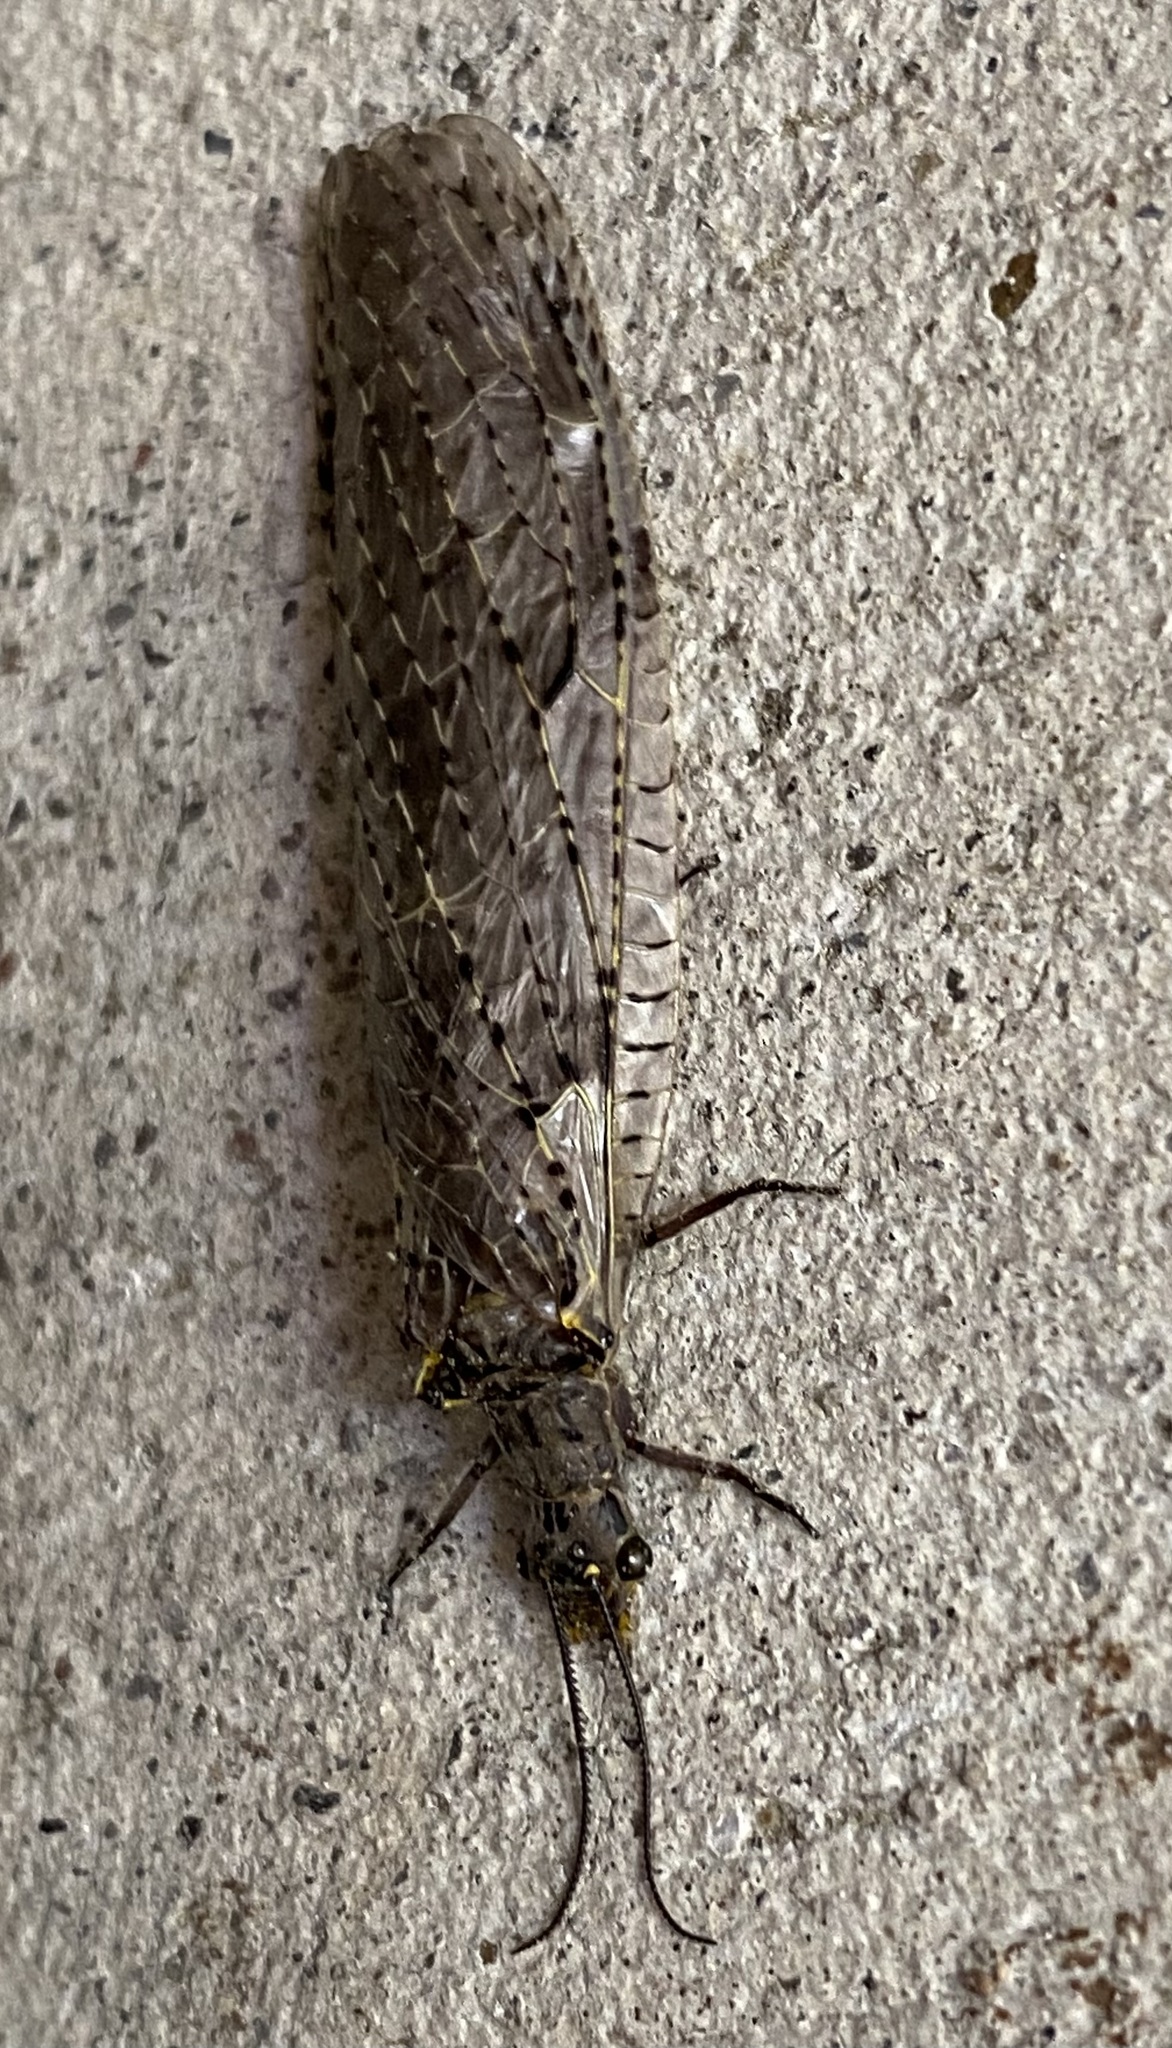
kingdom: Animalia
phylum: Arthropoda
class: Insecta
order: Megaloptera
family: Corydalidae
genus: Chauliodes
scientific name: Chauliodes rastricornis
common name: Spring fishfly
